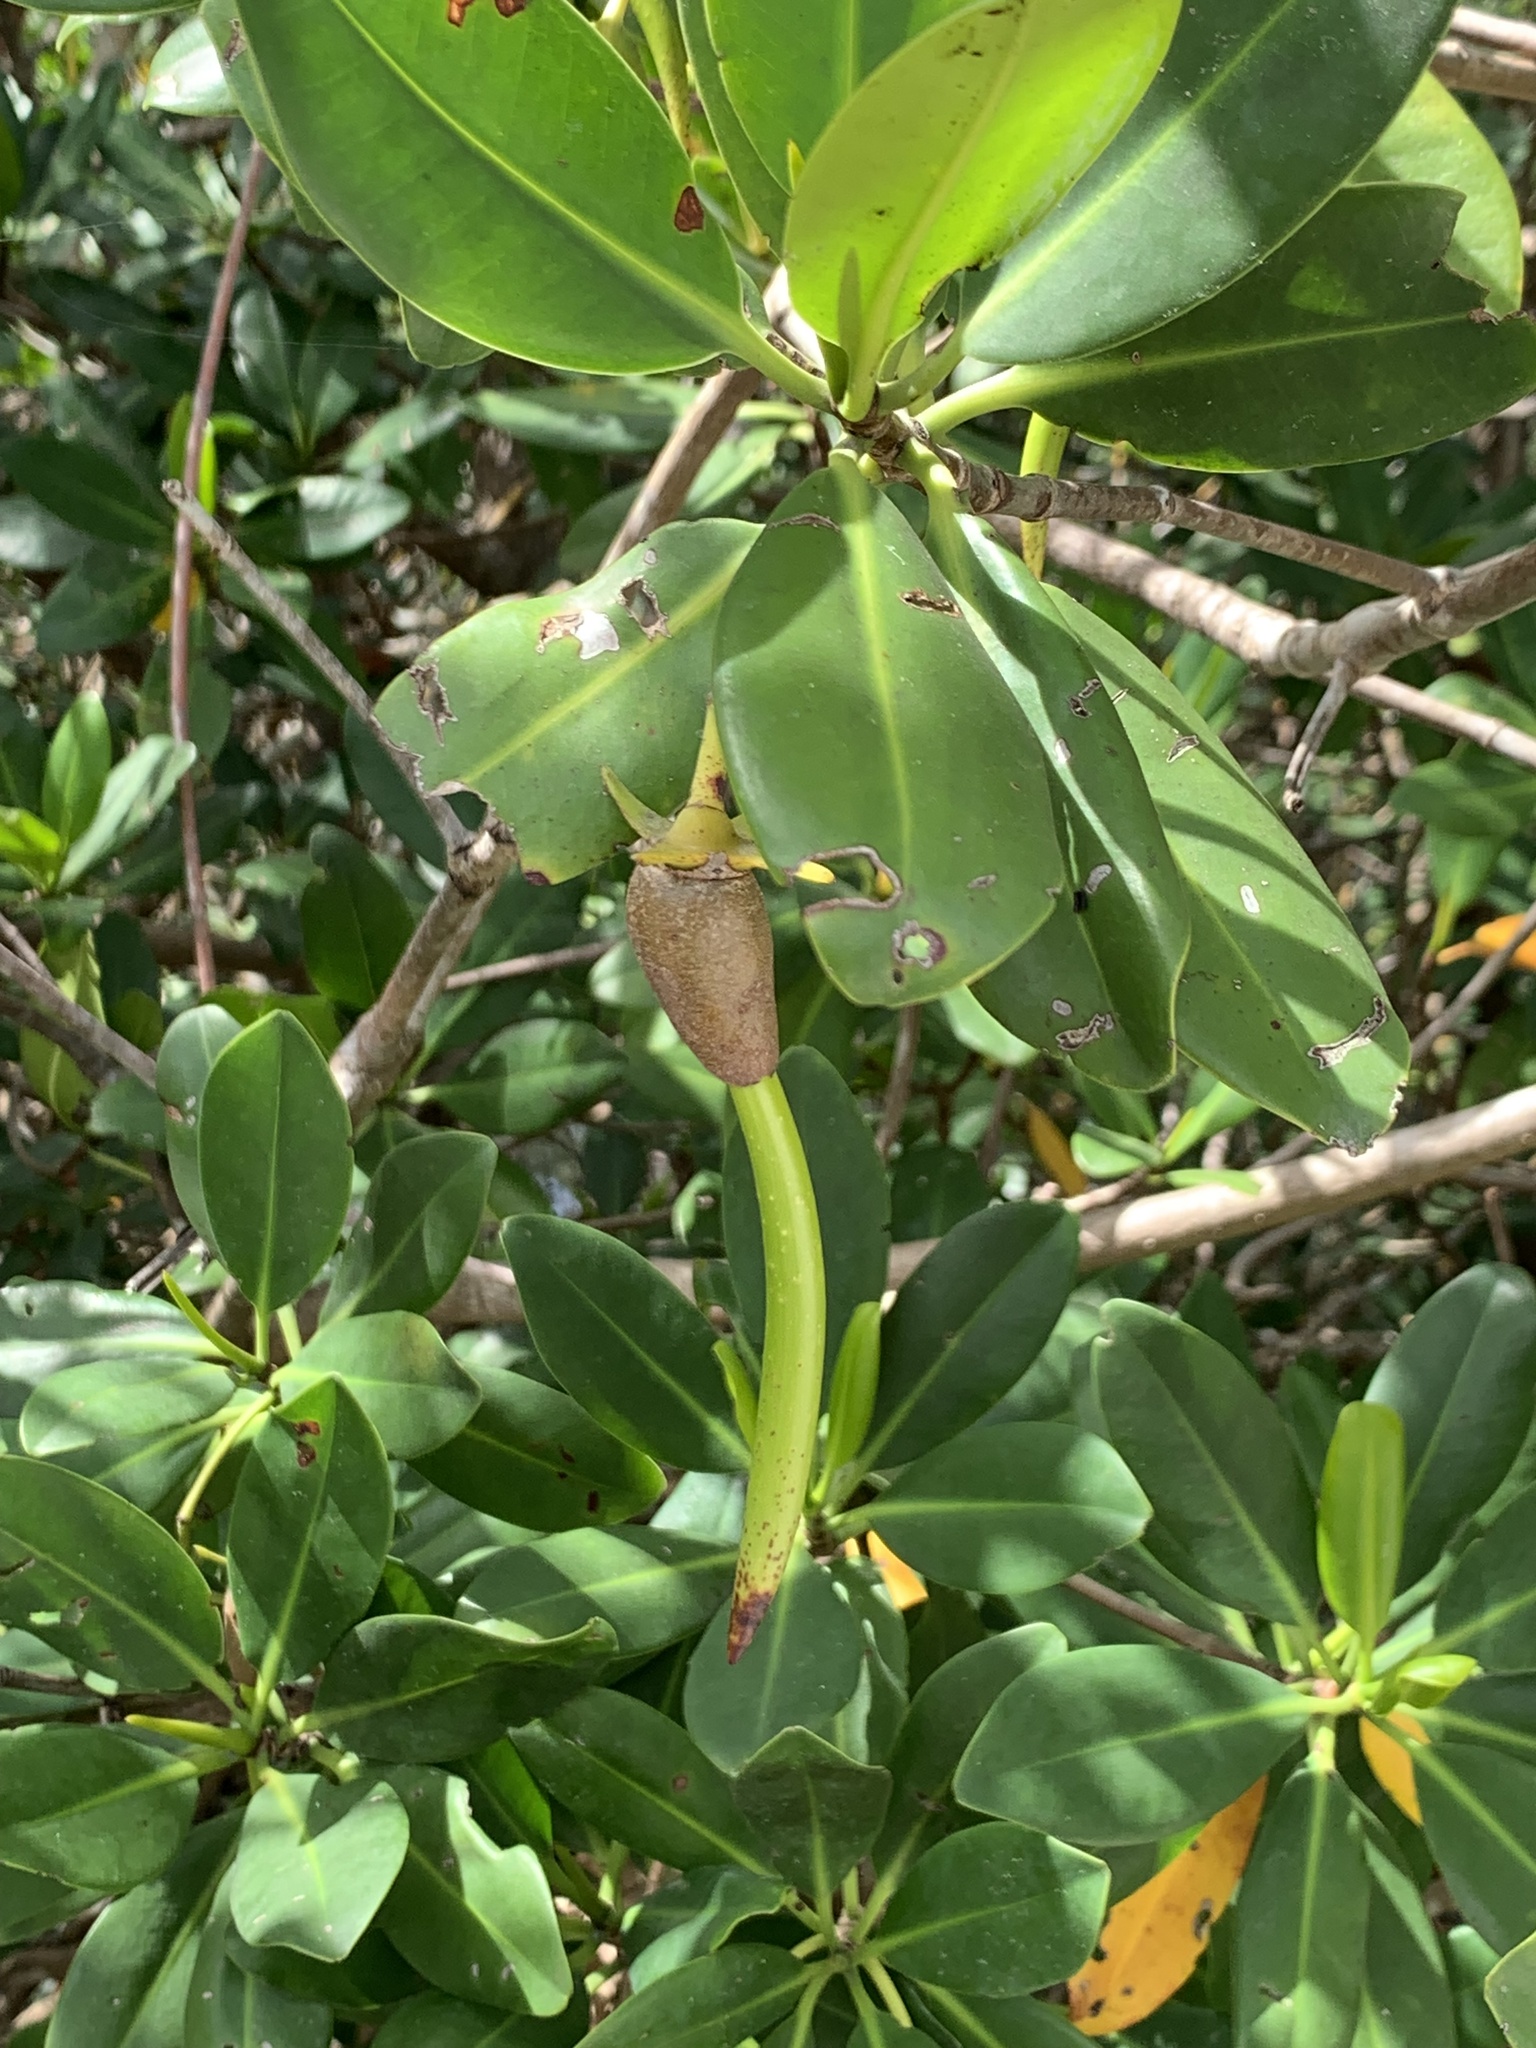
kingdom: Plantae
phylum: Tracheophyta
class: Magnoliopsida
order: Malpighiales
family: Rhizophoraceae
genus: Rhizophora
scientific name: Rhizophora mangle
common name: Red mangrove
